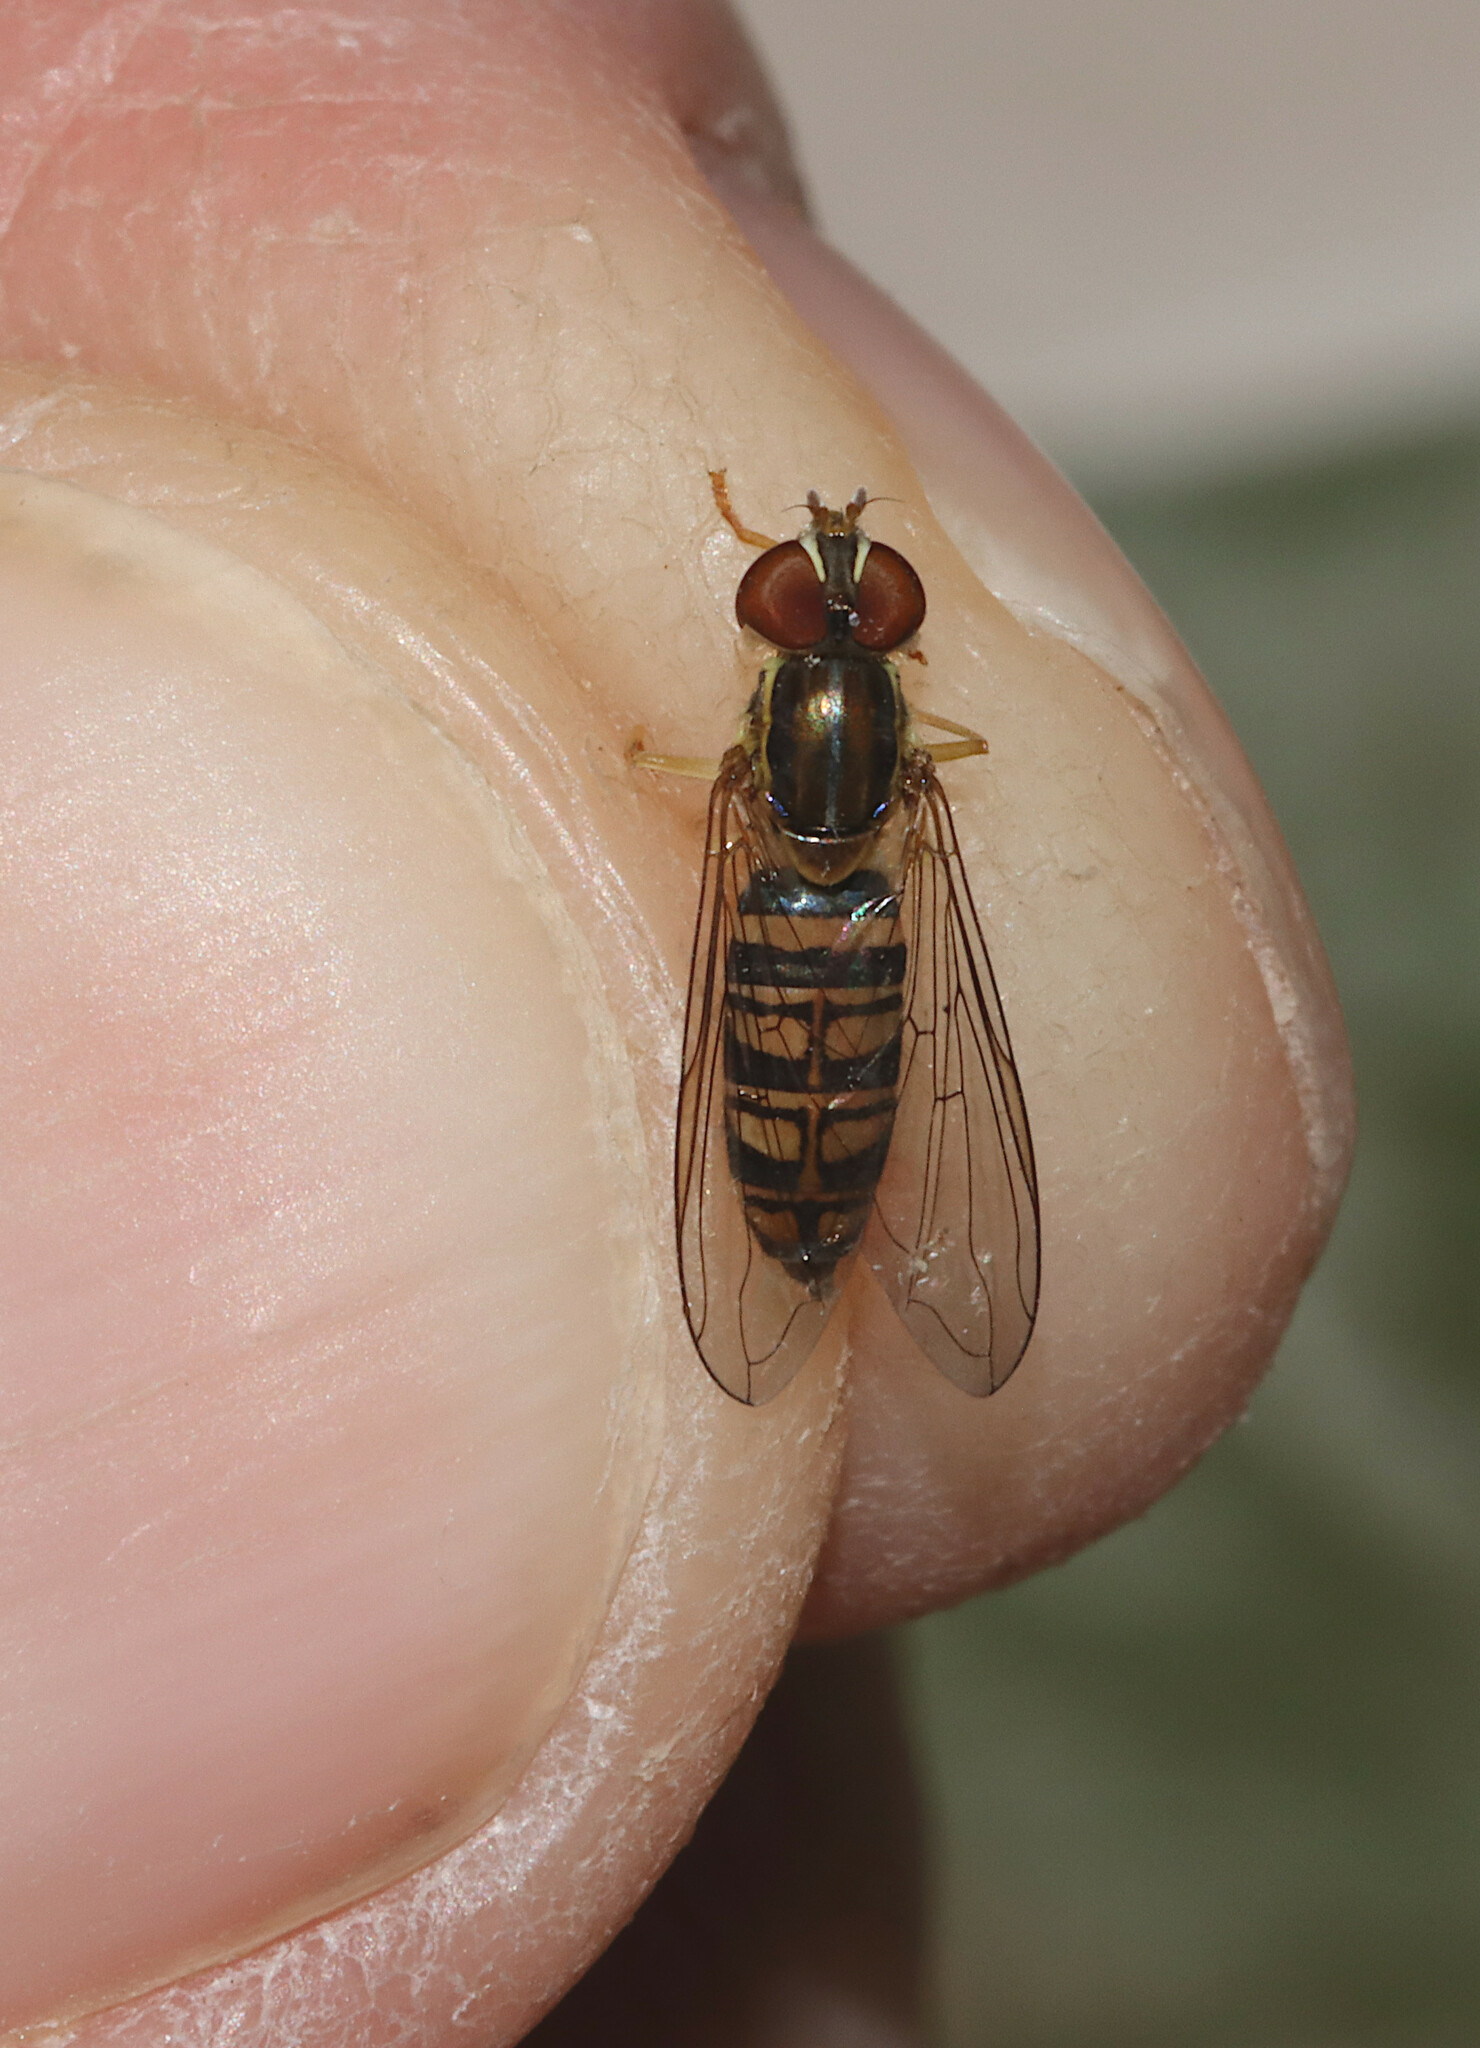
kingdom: Animalia
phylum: Arthropoda
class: Insecta
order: Diptera
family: Syrphidae
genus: Toxomerus
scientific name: Toxomerus politus
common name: Maize calligrapher
